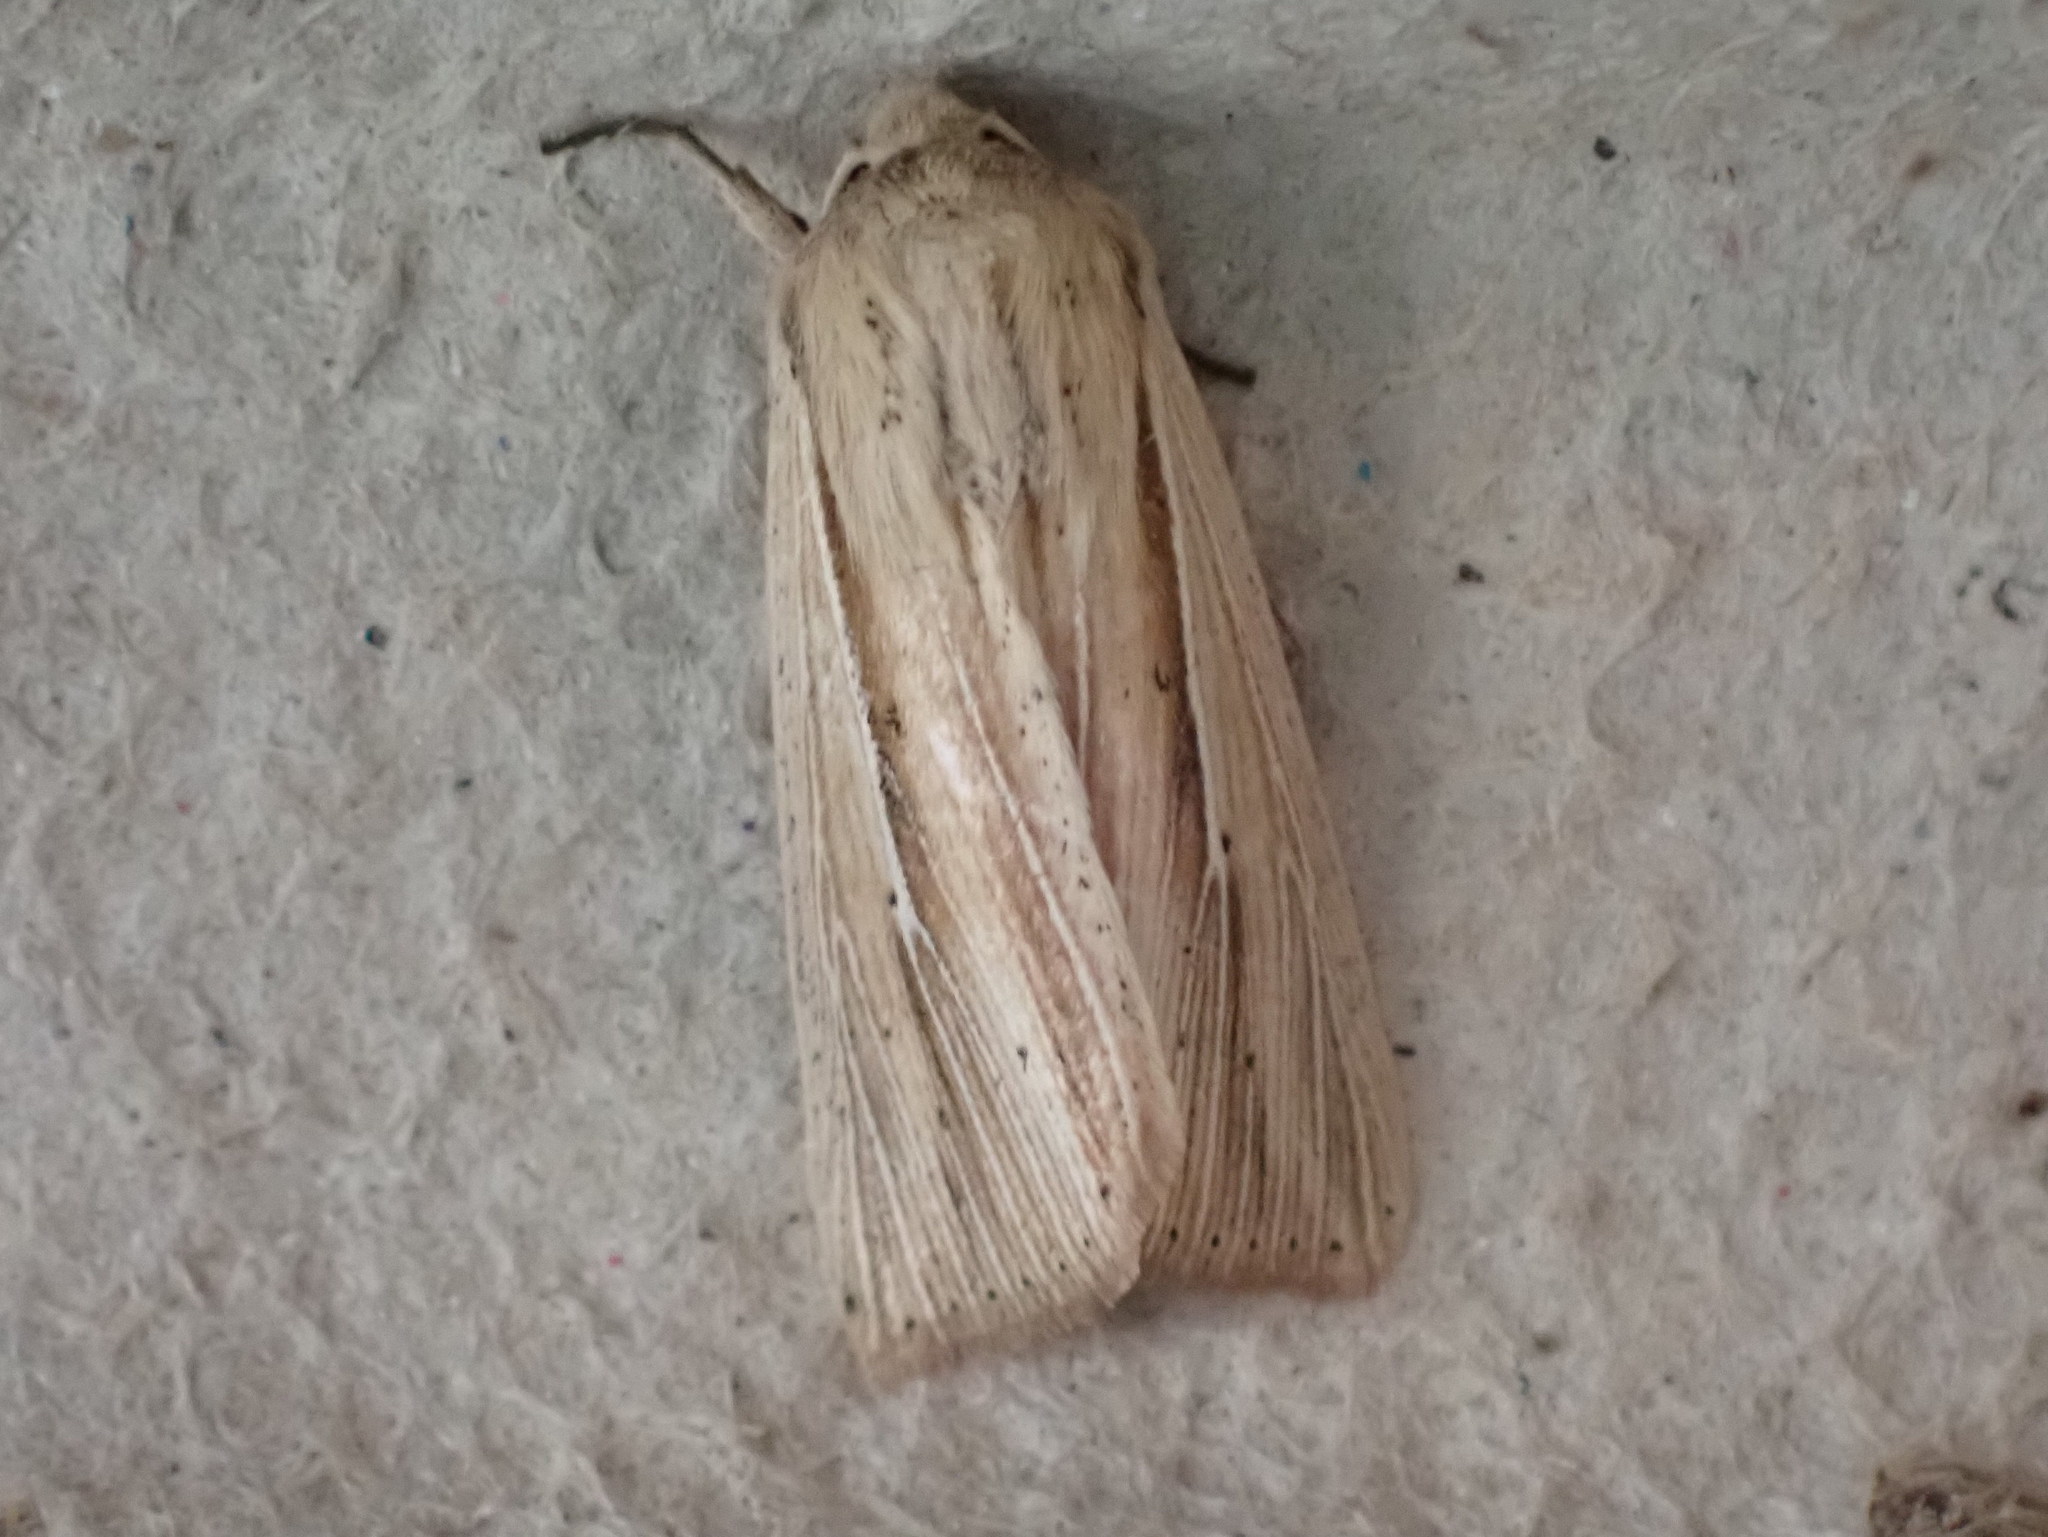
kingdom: Animalia
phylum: Arthropoda
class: Insecta
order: Lepidoptera
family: Noctuidae
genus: Mythimna
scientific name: Mythimna oxygala
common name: Lesser wainscot
